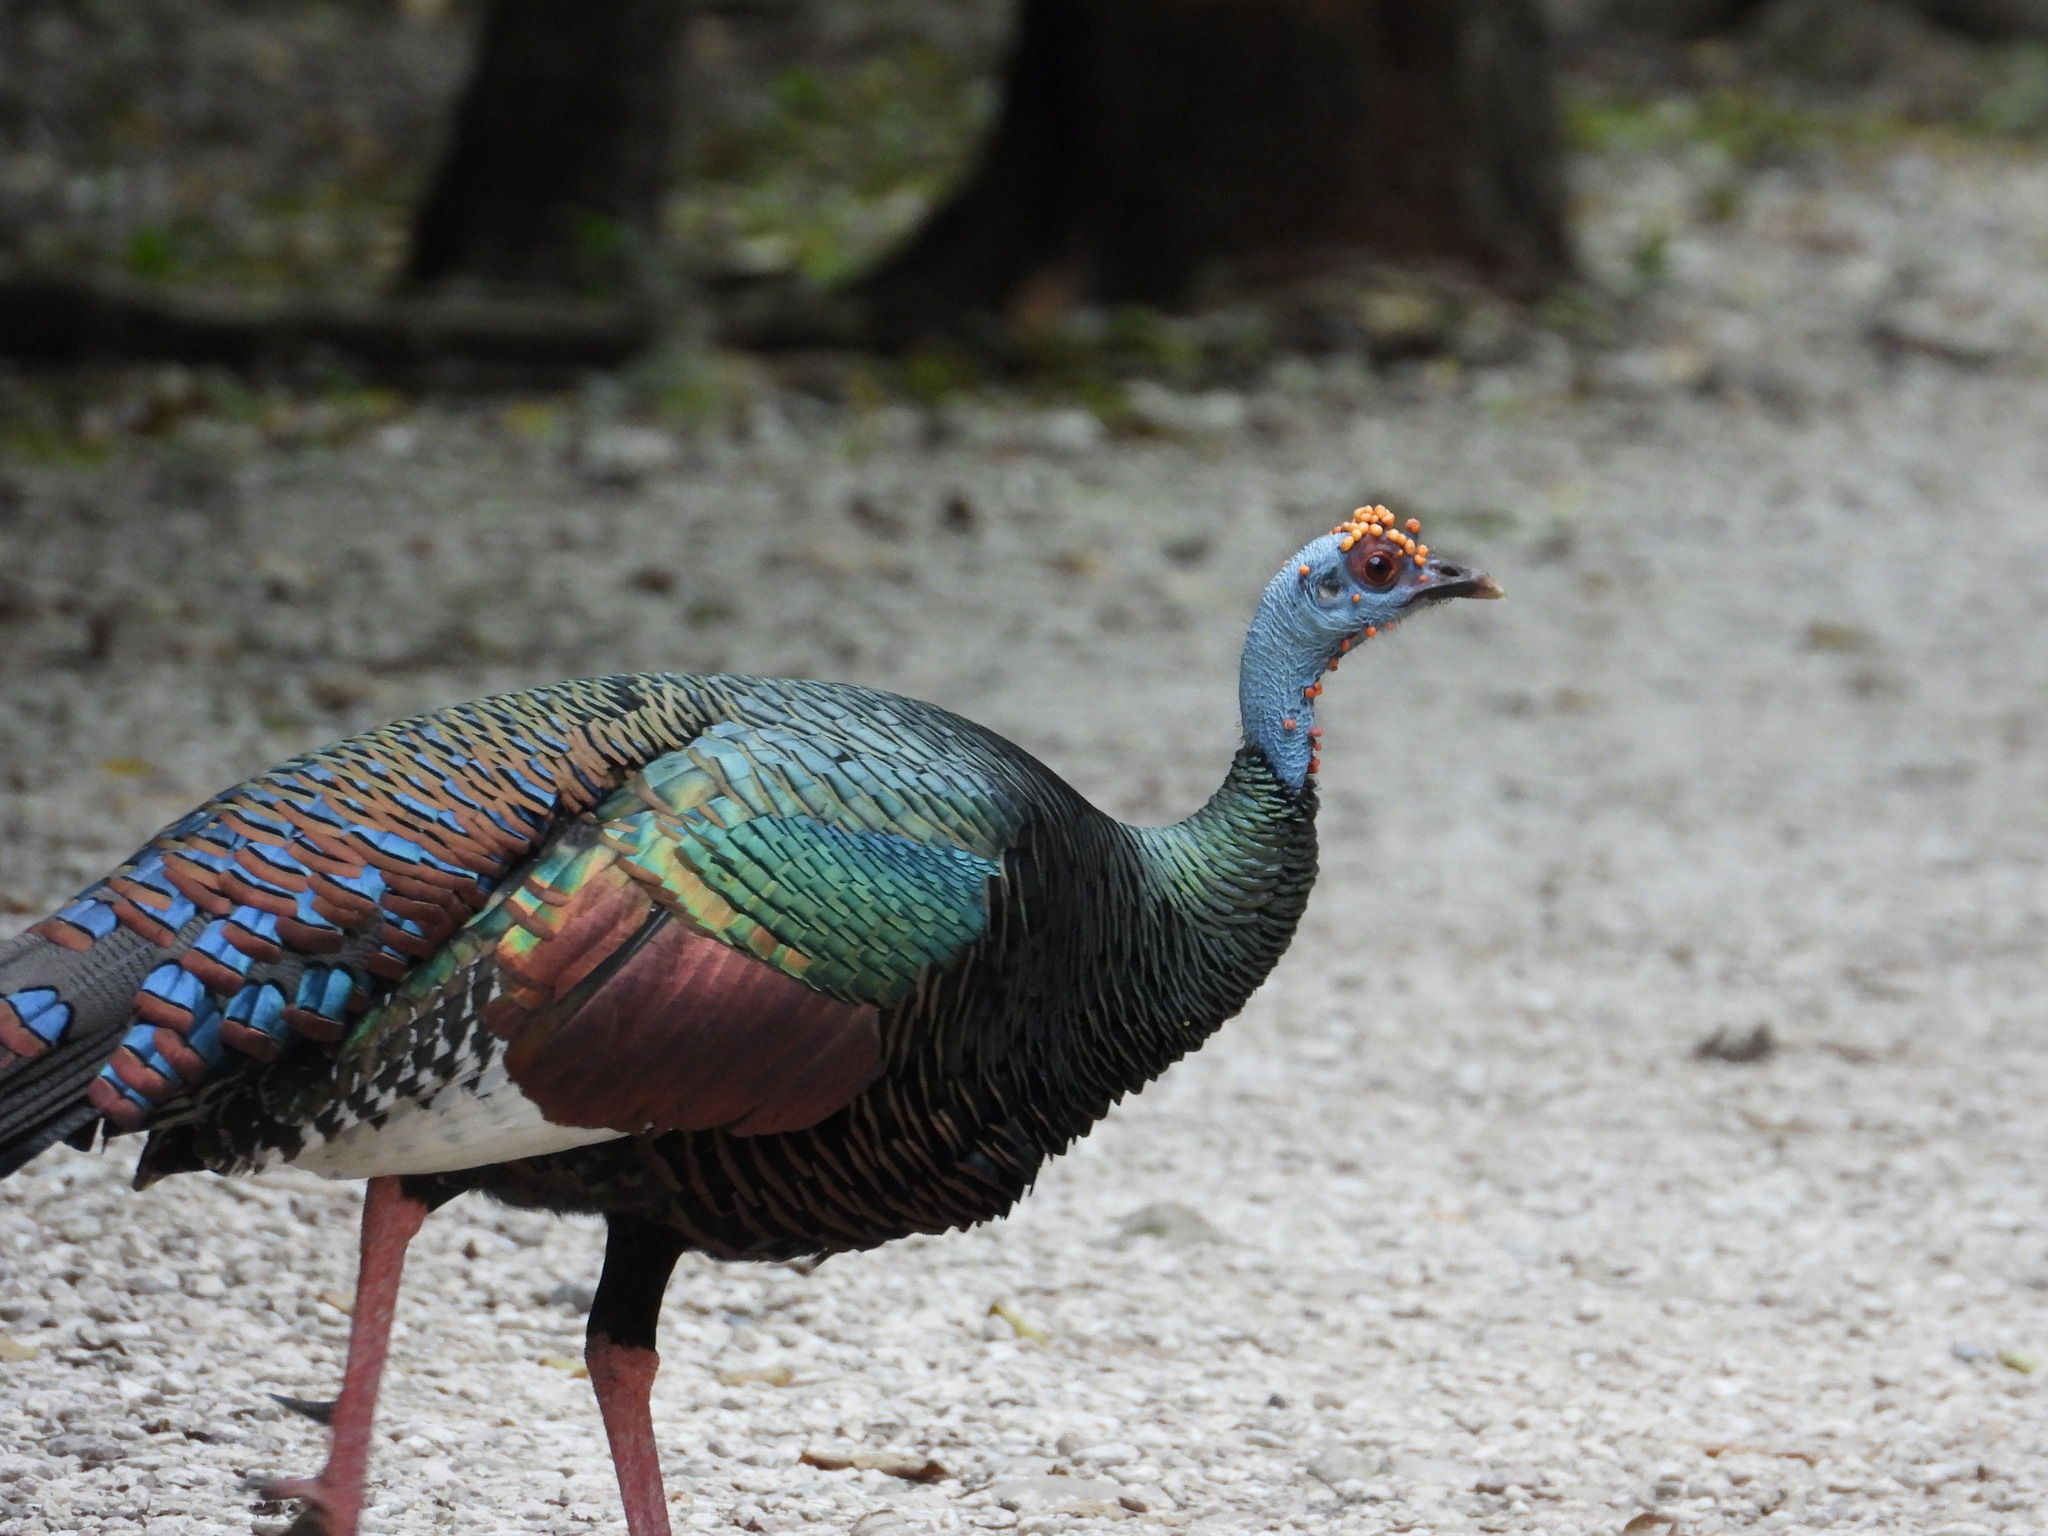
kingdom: Animalia
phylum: Chordata
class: Aves
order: Galliformes
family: Phasianidae
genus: Meleagris
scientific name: Meleagris ocellata
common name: Ocellated turkey
